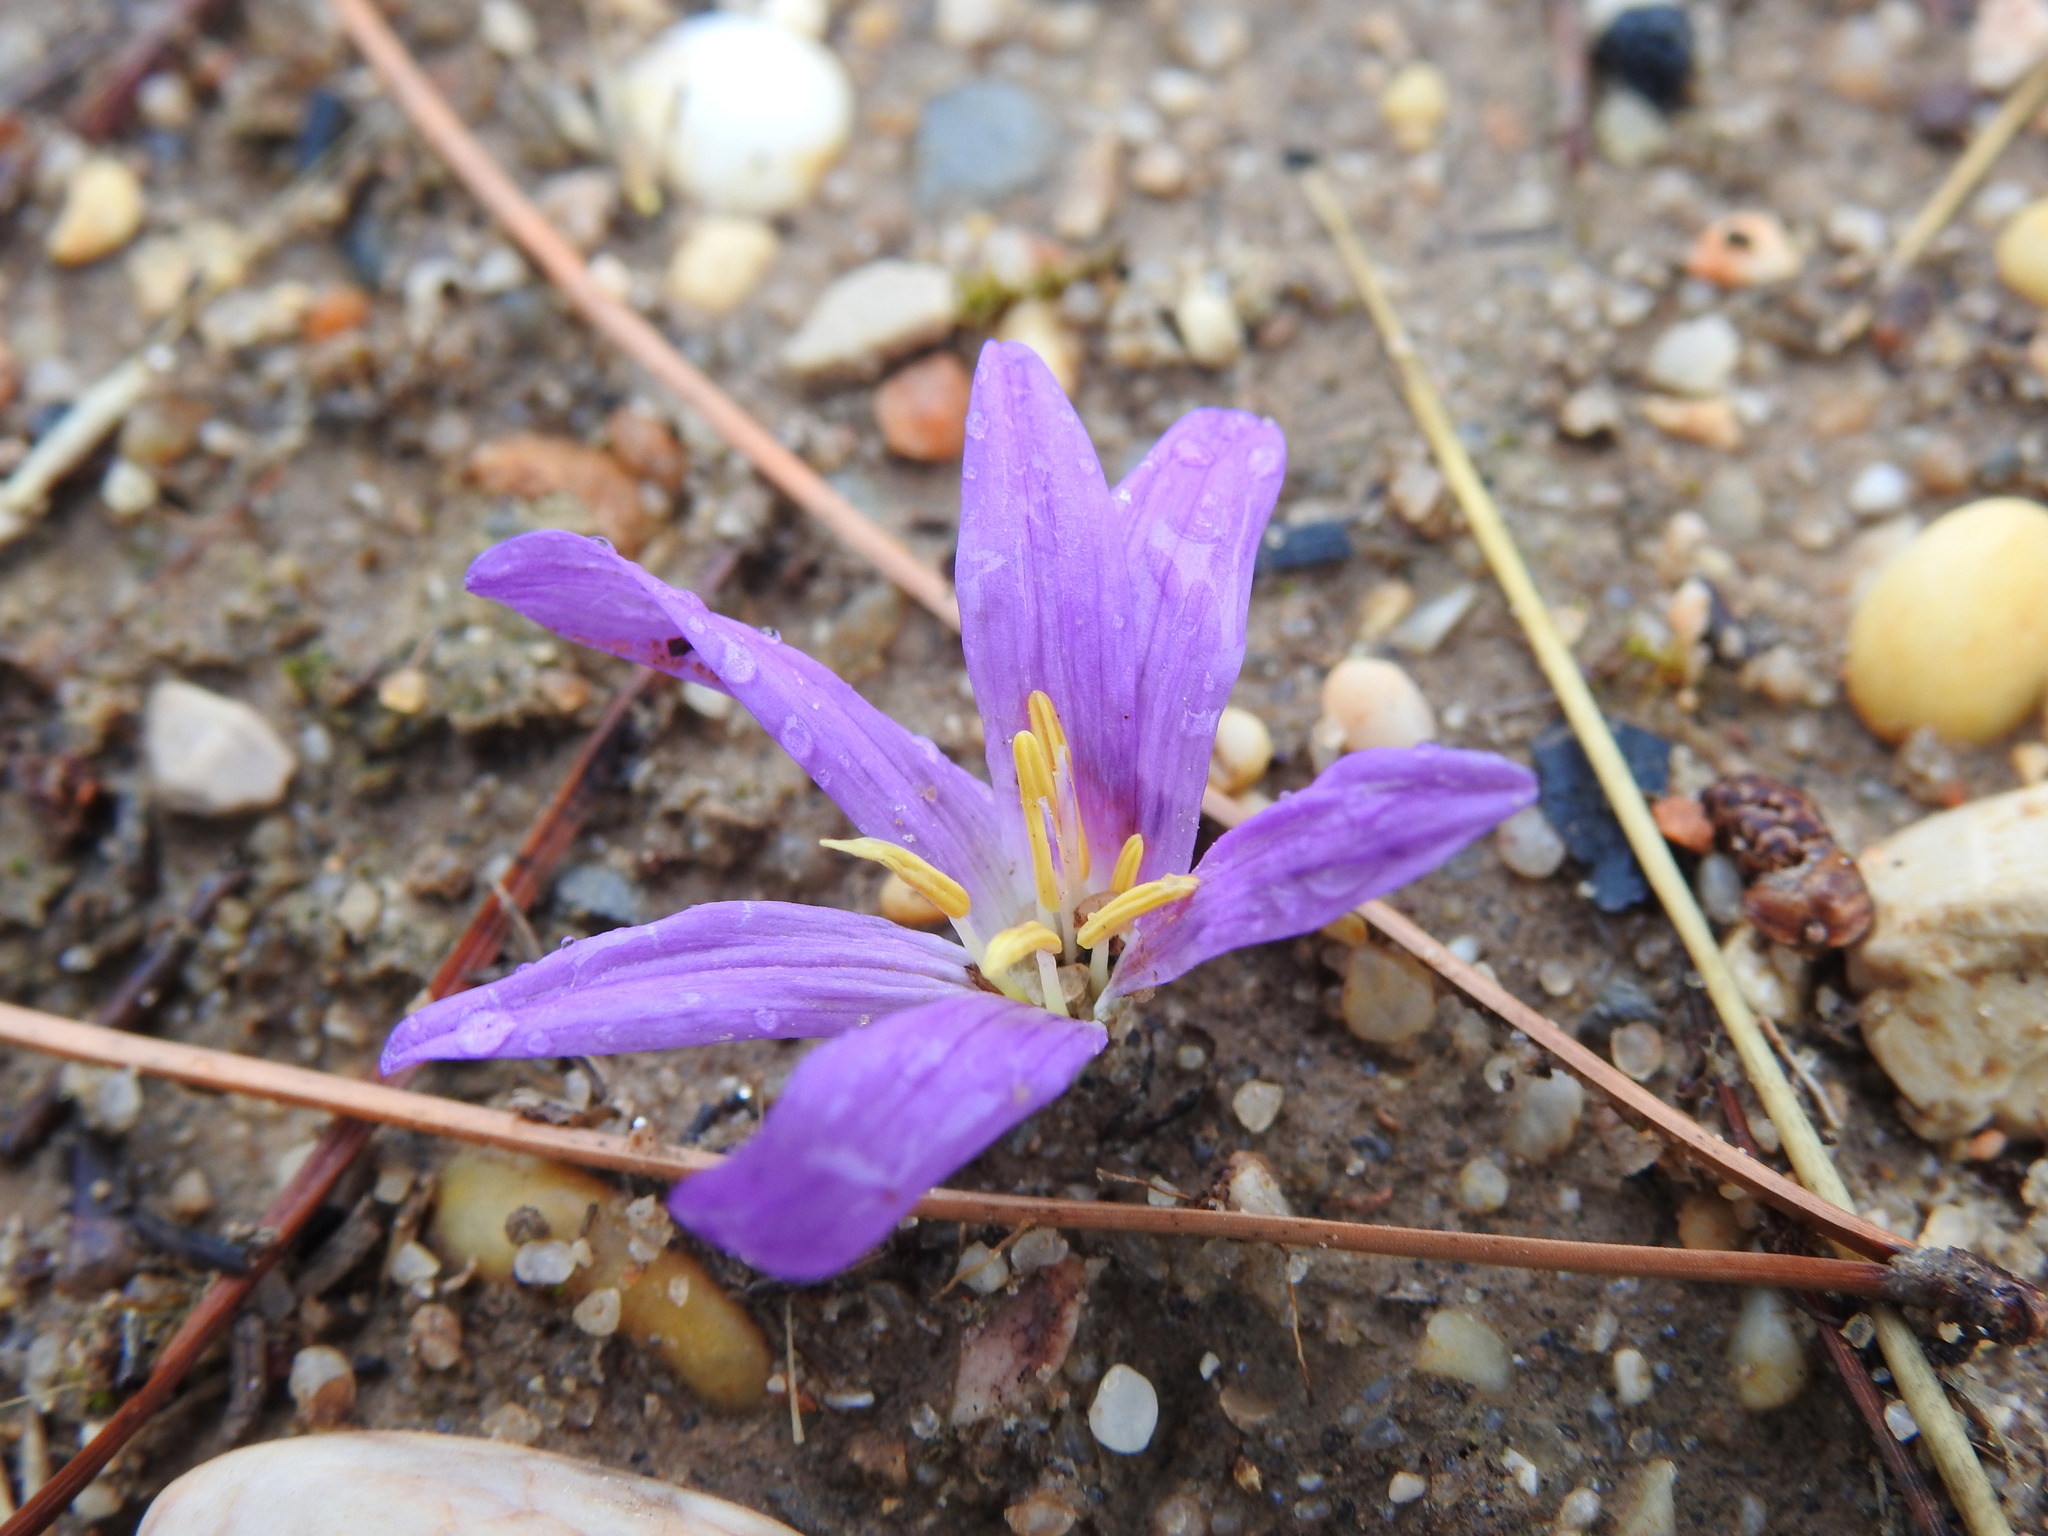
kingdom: Plantae
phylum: Tracheophyta
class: Liliopsida
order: Liliales
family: Colchicaceae
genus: Colchicum
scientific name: Colchicum filifolium
